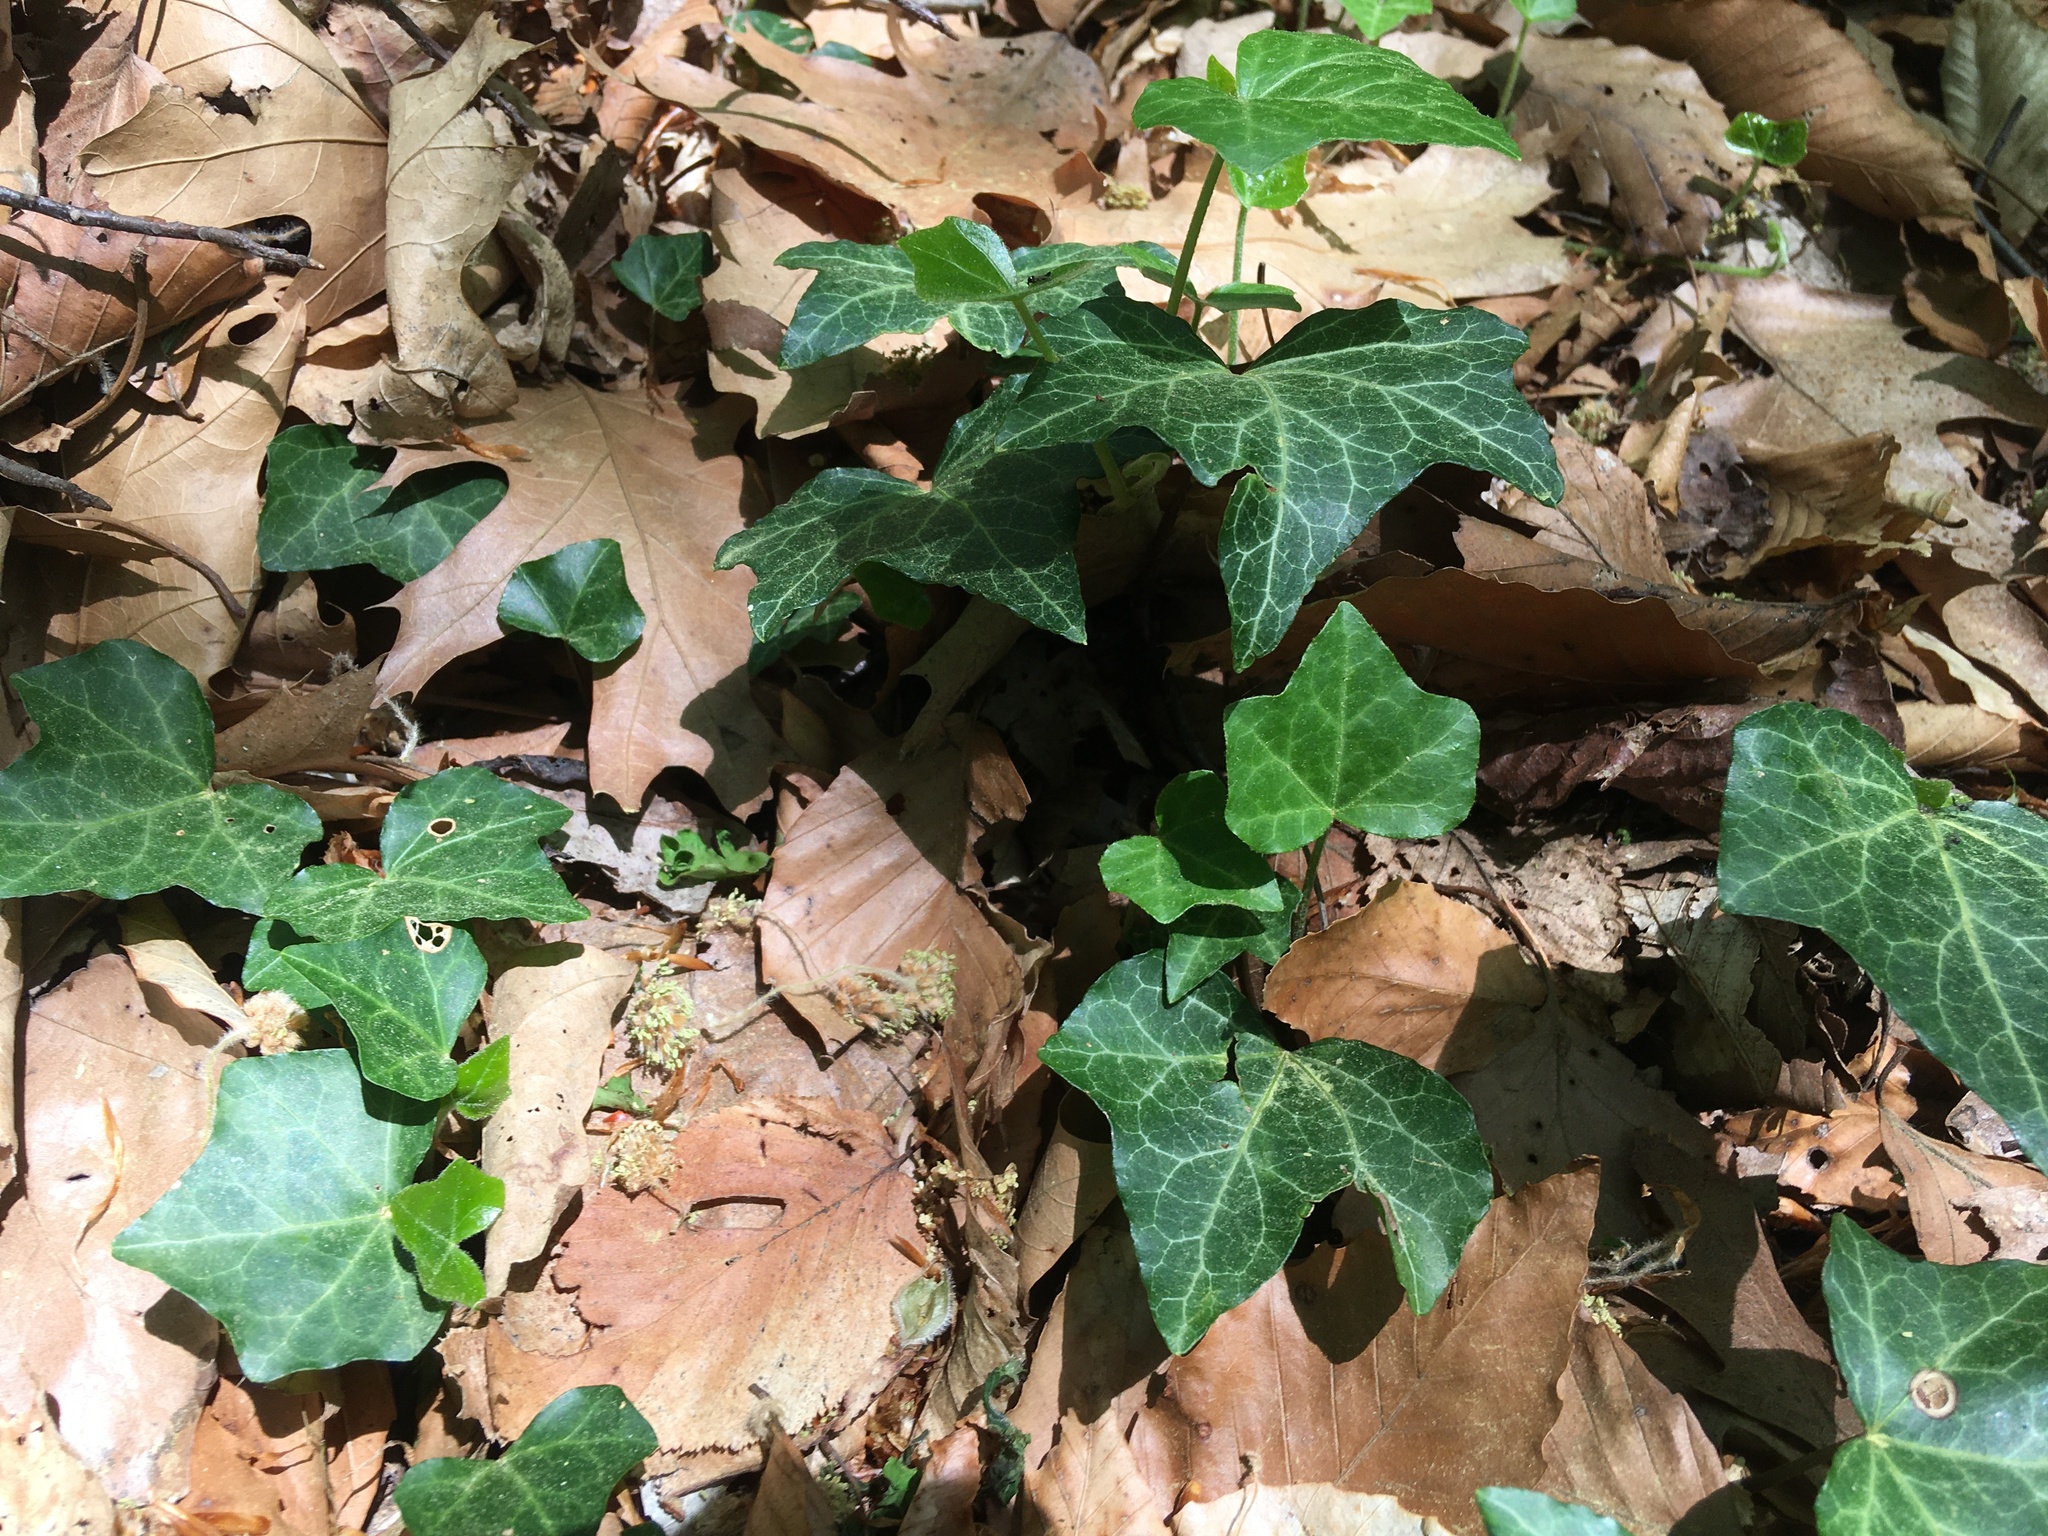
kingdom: Plantae
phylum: Tracheophyta
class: Magnoliopsida
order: Apiales
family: Araliaceae
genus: Hedera
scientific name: Hedera helix
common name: Ivy
